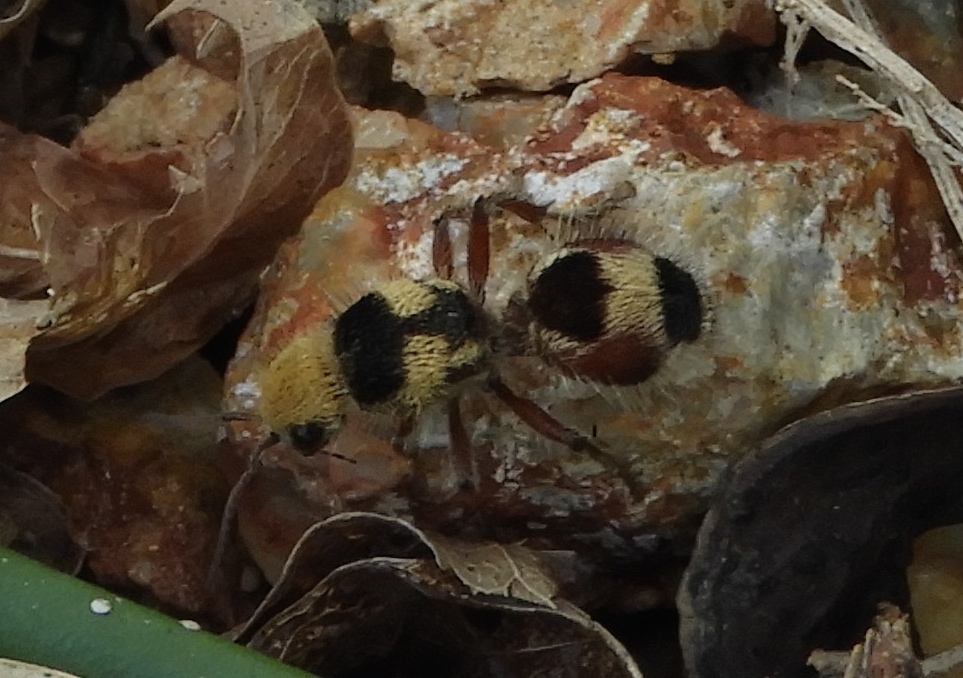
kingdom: Animalia
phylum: Arthropoda
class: Insecta
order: Hymenoptera
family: Mutillidae
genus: Dasymutilla
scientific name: Dasymutilla
